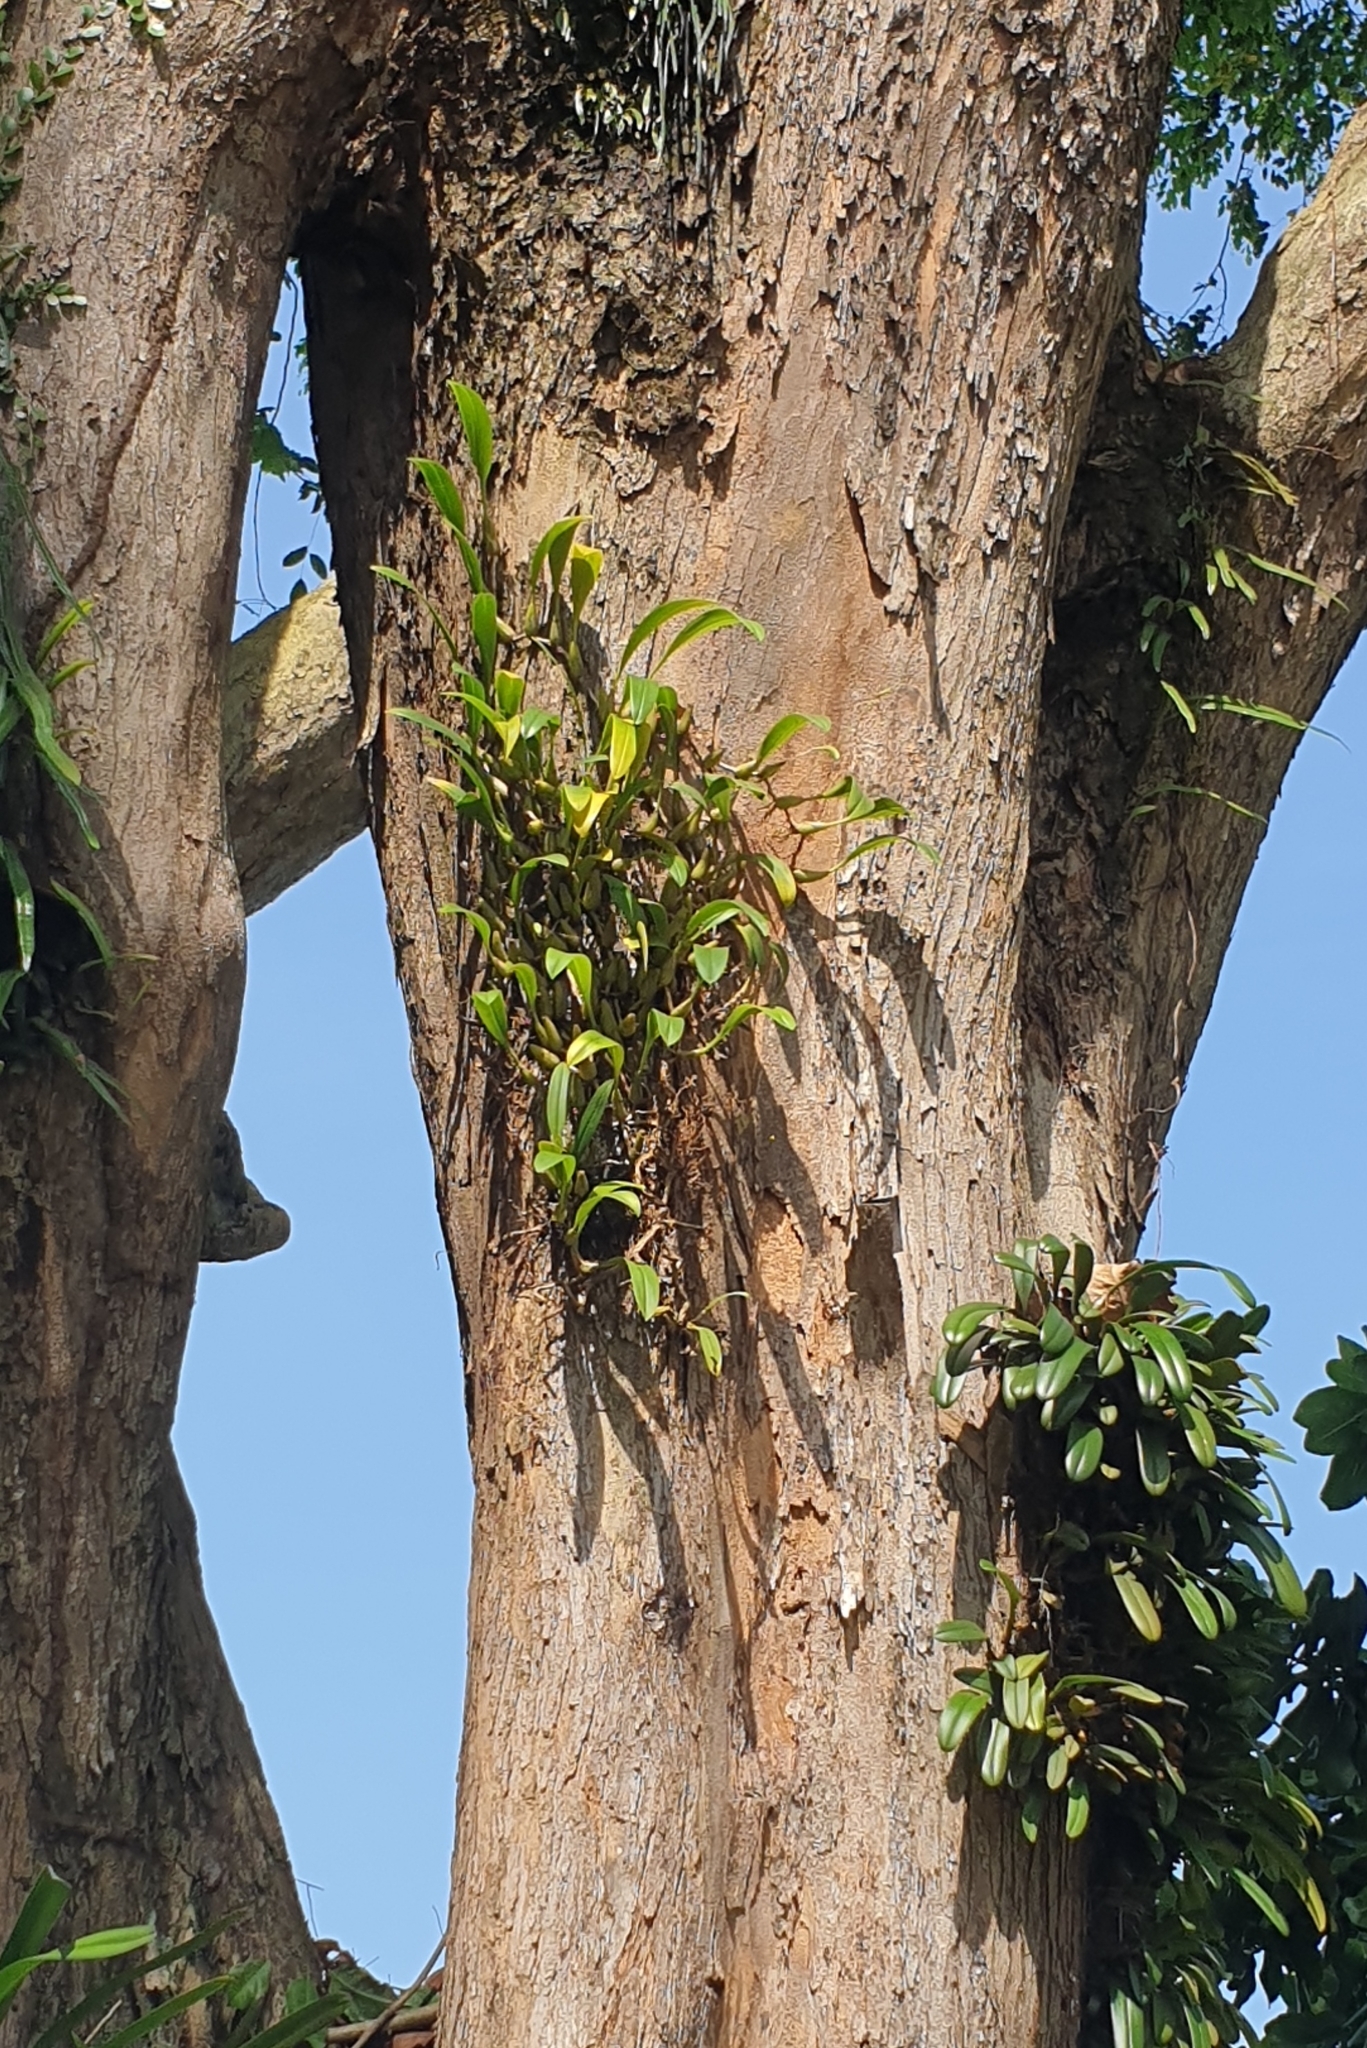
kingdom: Plantae
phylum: Tracheophyta
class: Liliopsida
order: Asparagales
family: Orchidaceae
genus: Bulbophyllum
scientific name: Bulbophyllum maxillare
